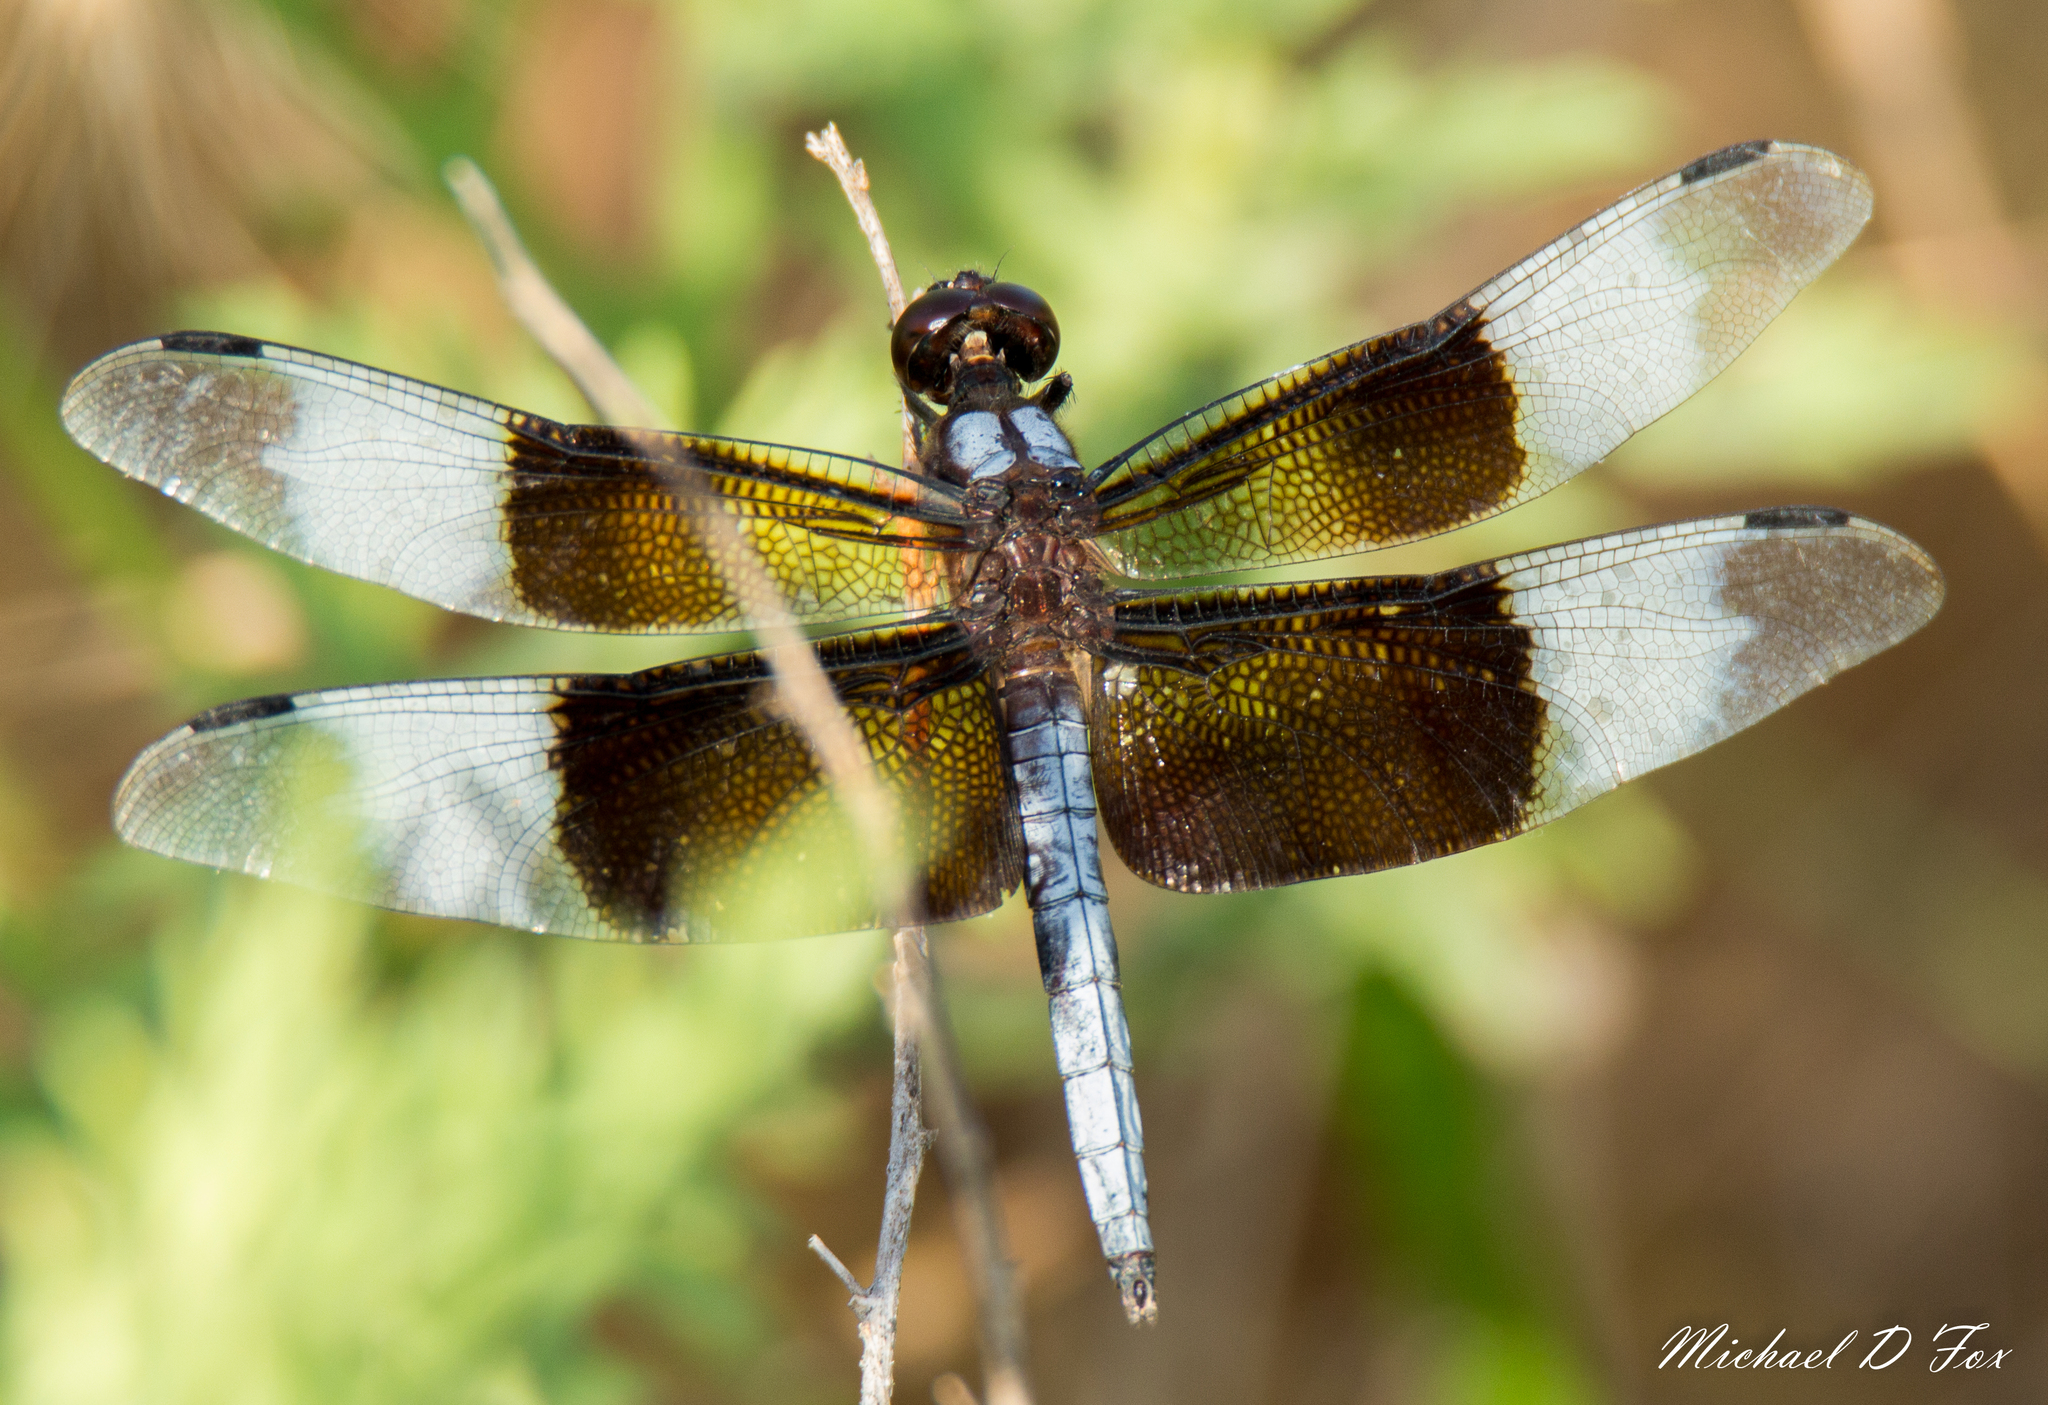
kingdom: Animalia
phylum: Arthropoda
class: Insecta
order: Odonata
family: Libellulidae
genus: Libellula
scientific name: Libellula luctuosa
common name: Widow skimmer
